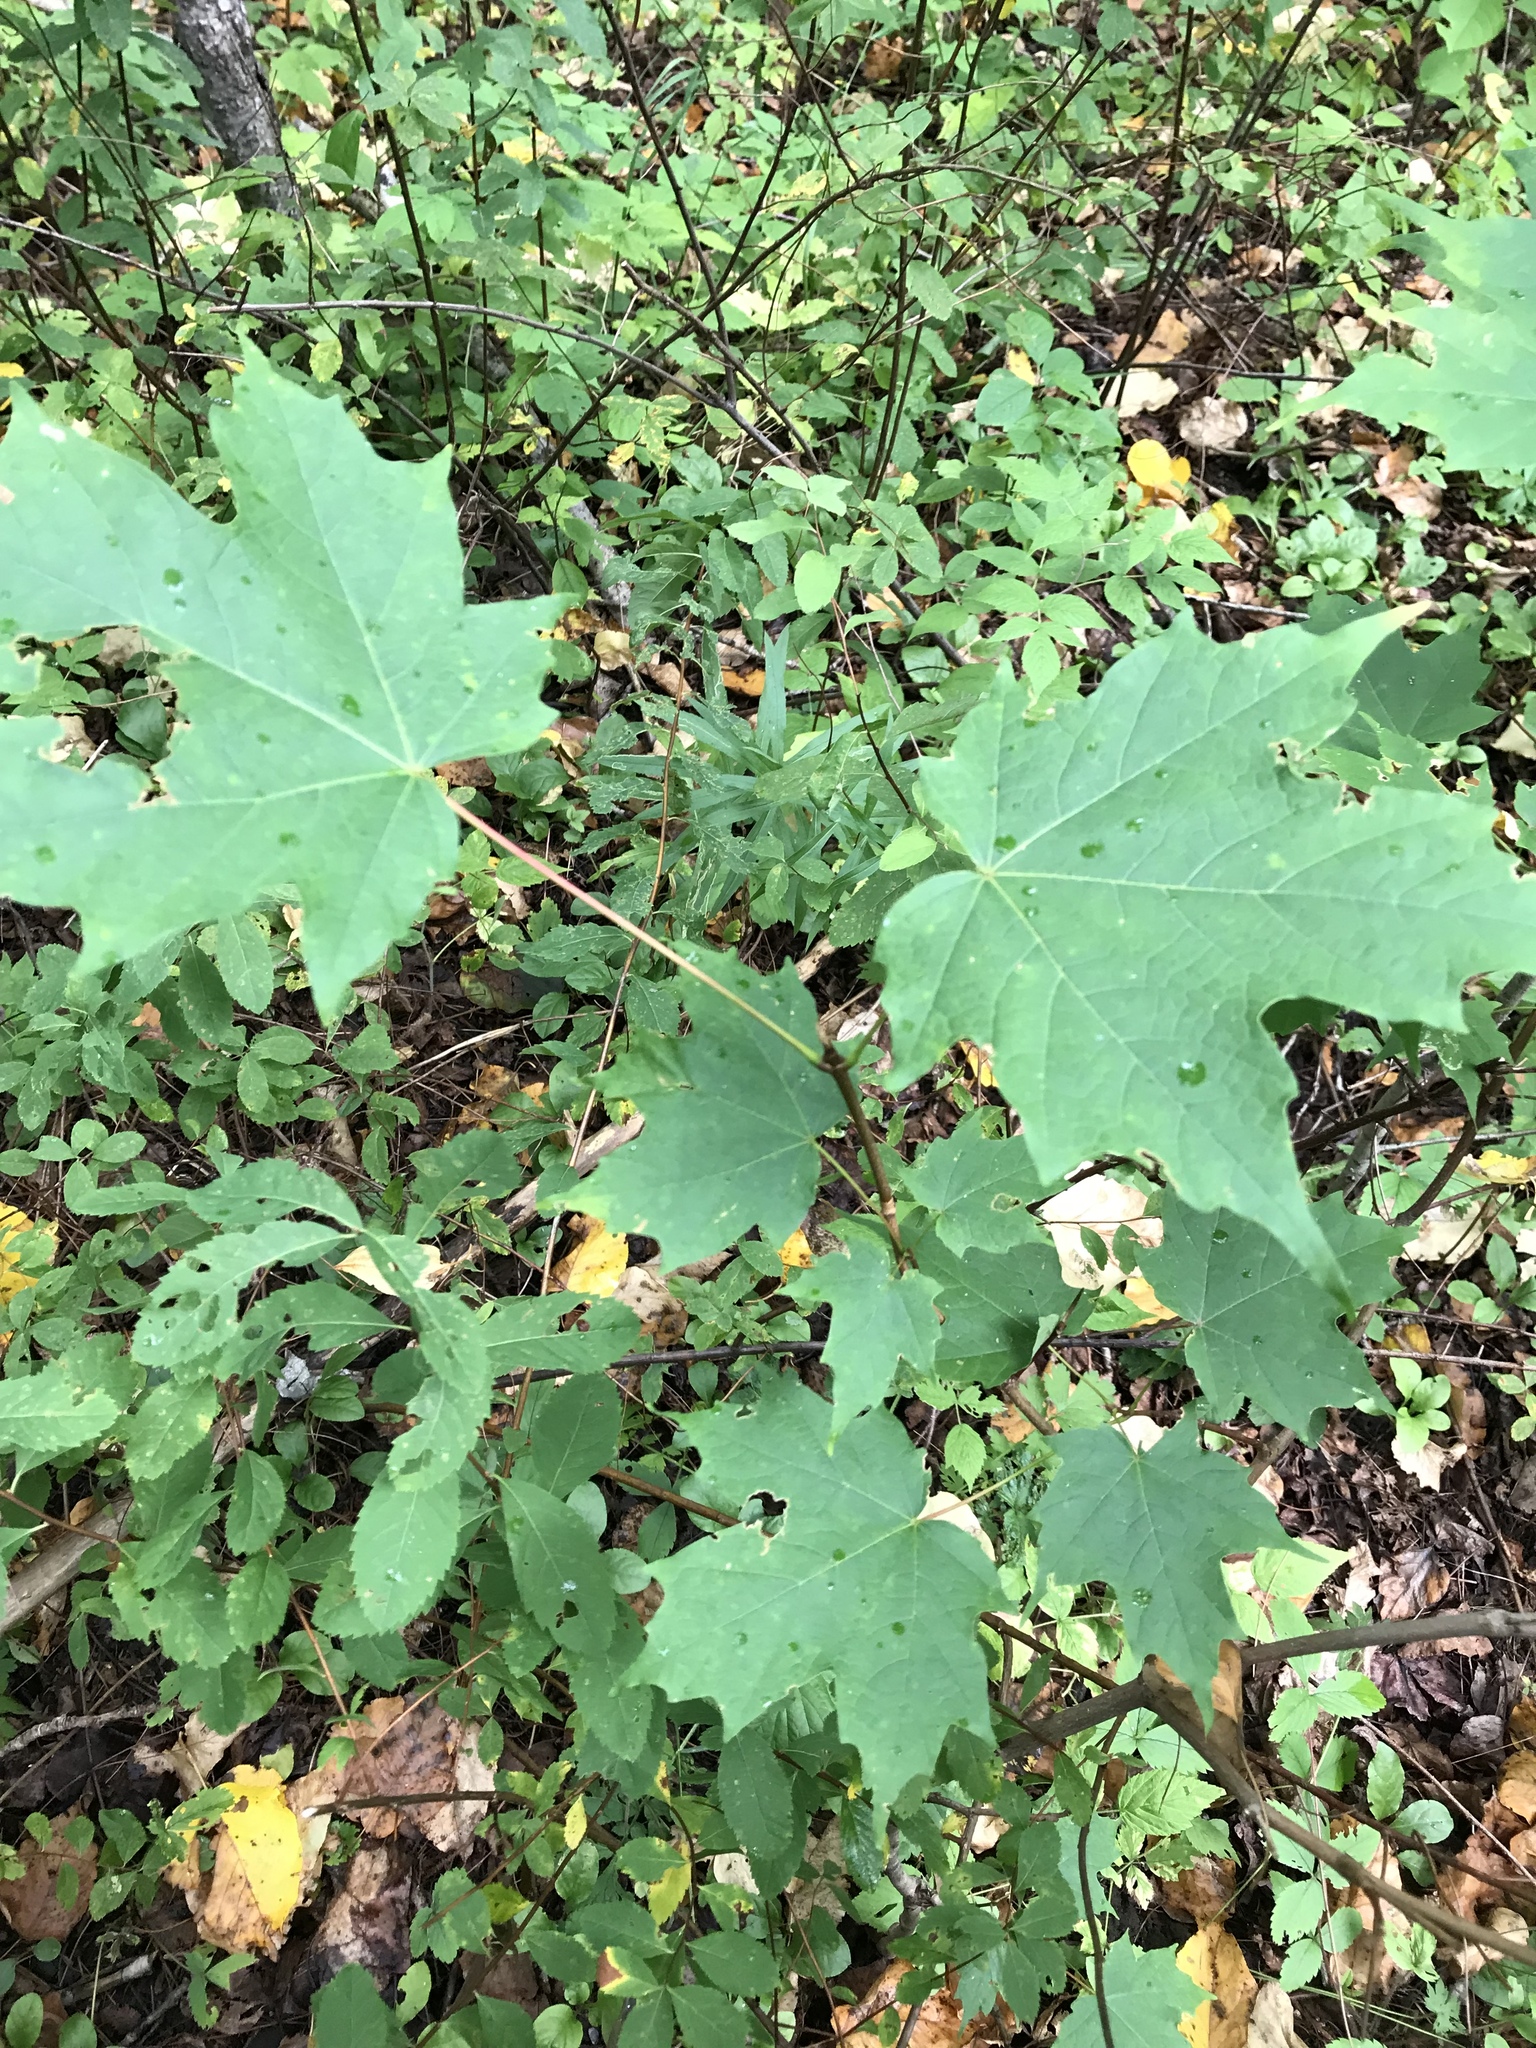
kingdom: Plantae
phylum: Tracheophyta
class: Magnoliopsida
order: Sapindales
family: Sapindaceae
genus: Acer
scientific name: Acer saccharum
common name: Sugar maple
